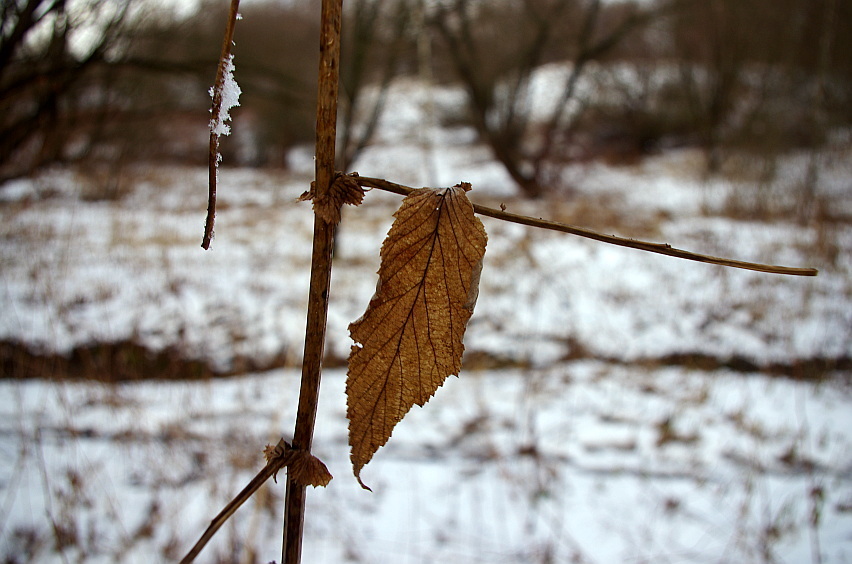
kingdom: Plantae
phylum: Tracheophyta
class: Magnoliopsida
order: Rosales
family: Rosaceae
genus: Filipendula
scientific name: Filipendula ulmaria
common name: Meadowsweet
